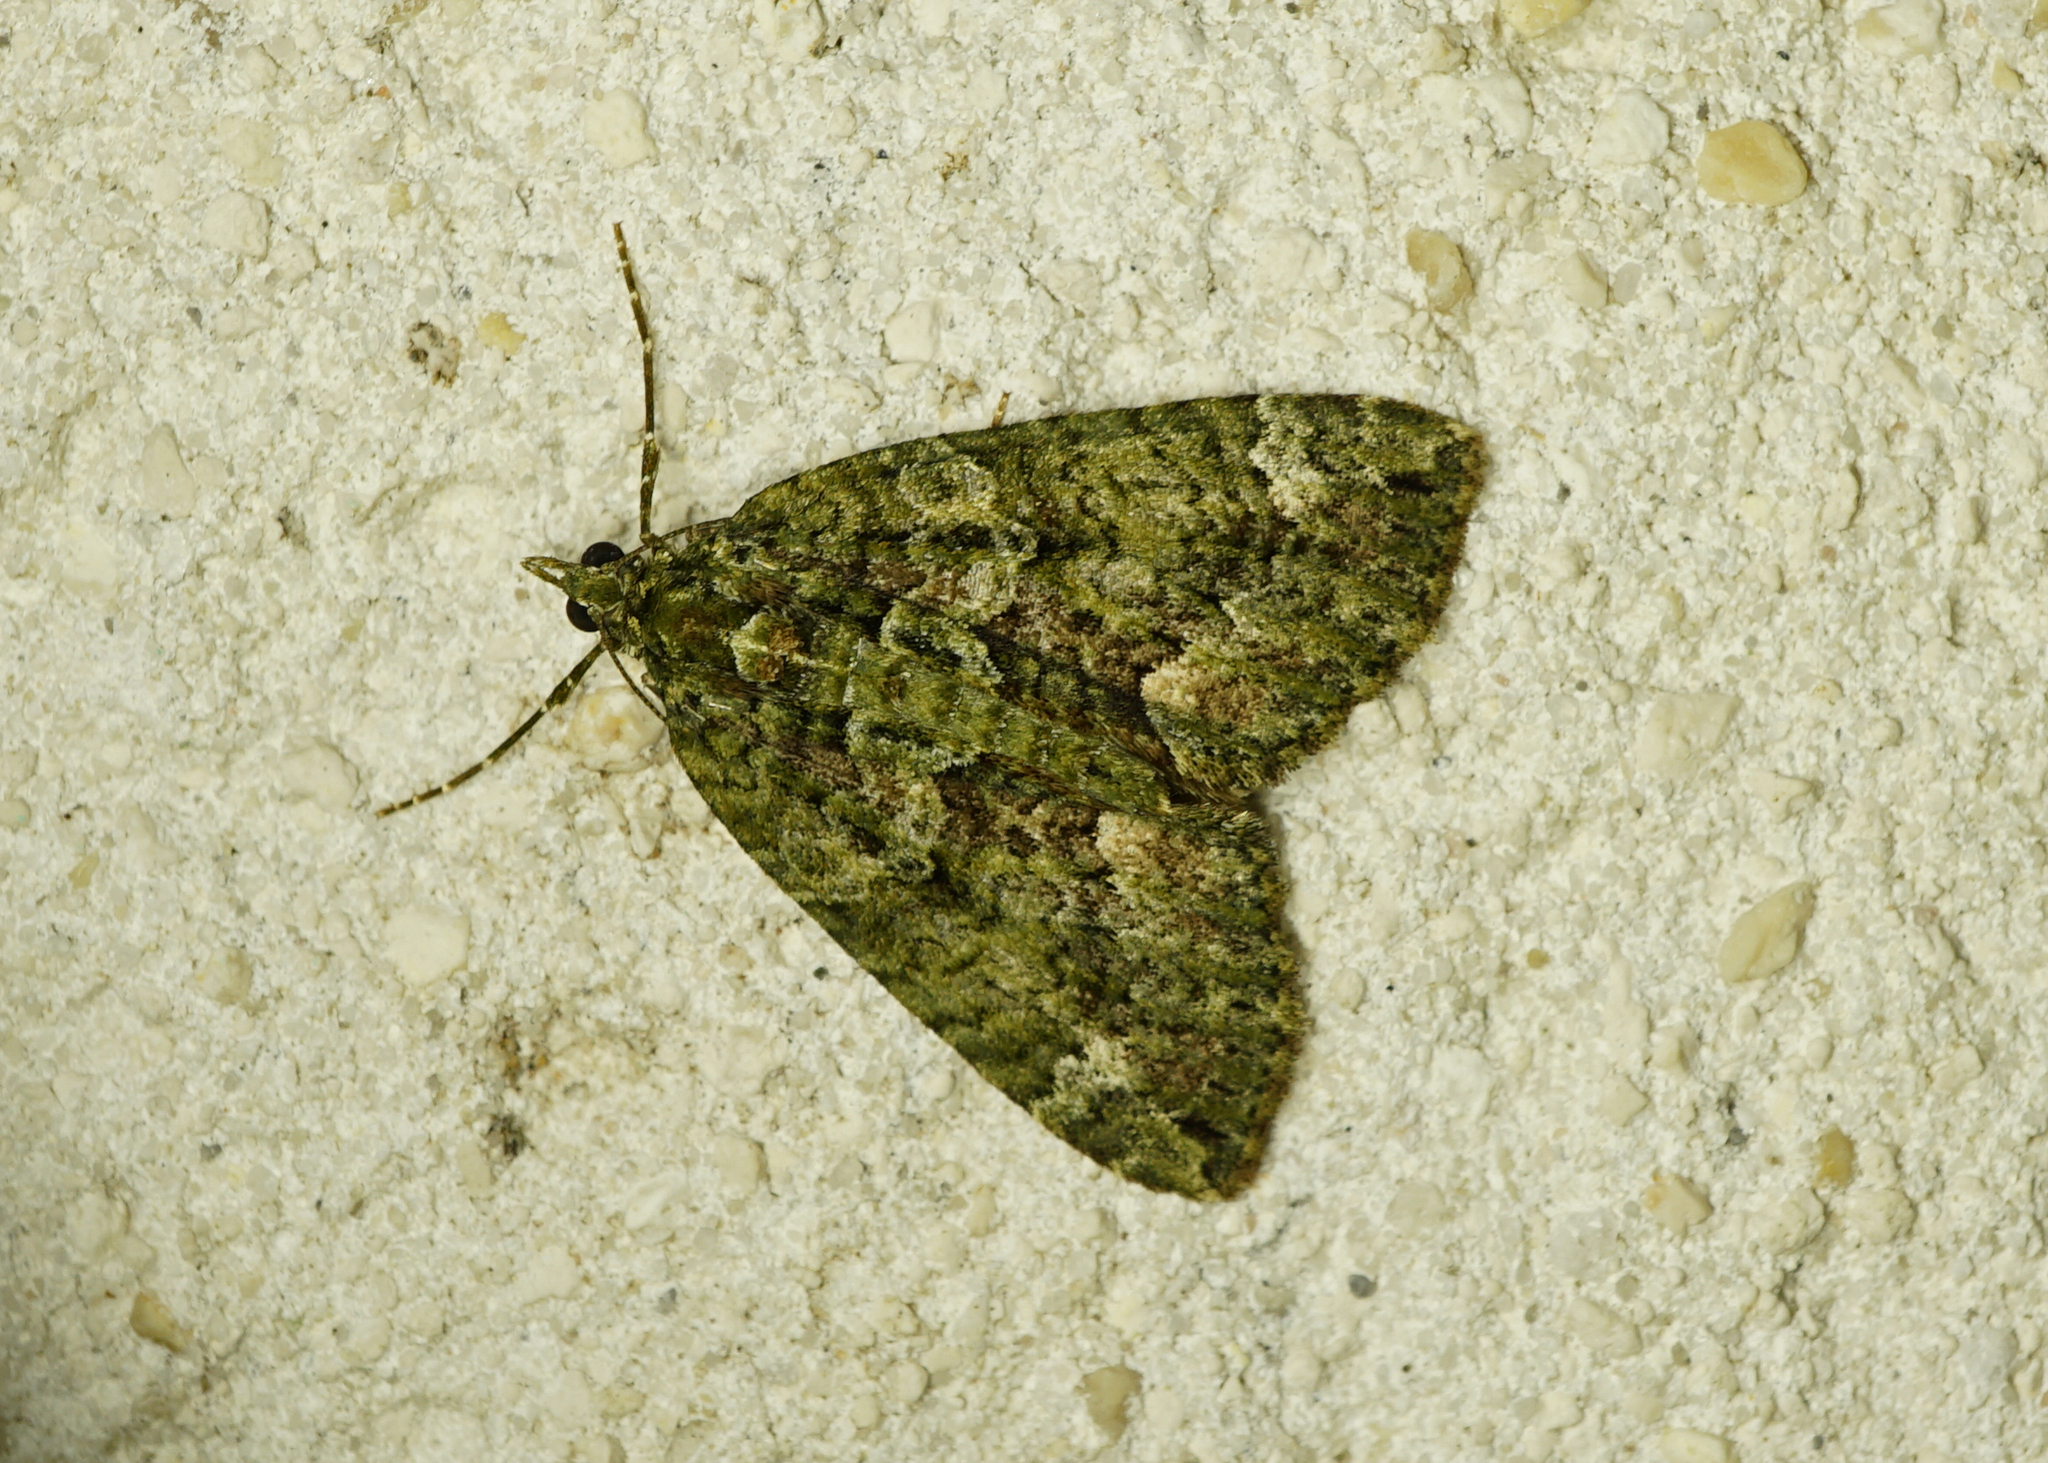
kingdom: Animalia
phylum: Arthropoda
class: Insecta
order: Lepidoptera
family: Geometridae
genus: Chloroclysta
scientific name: Chloroclysta siterata
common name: Red-green carpet
